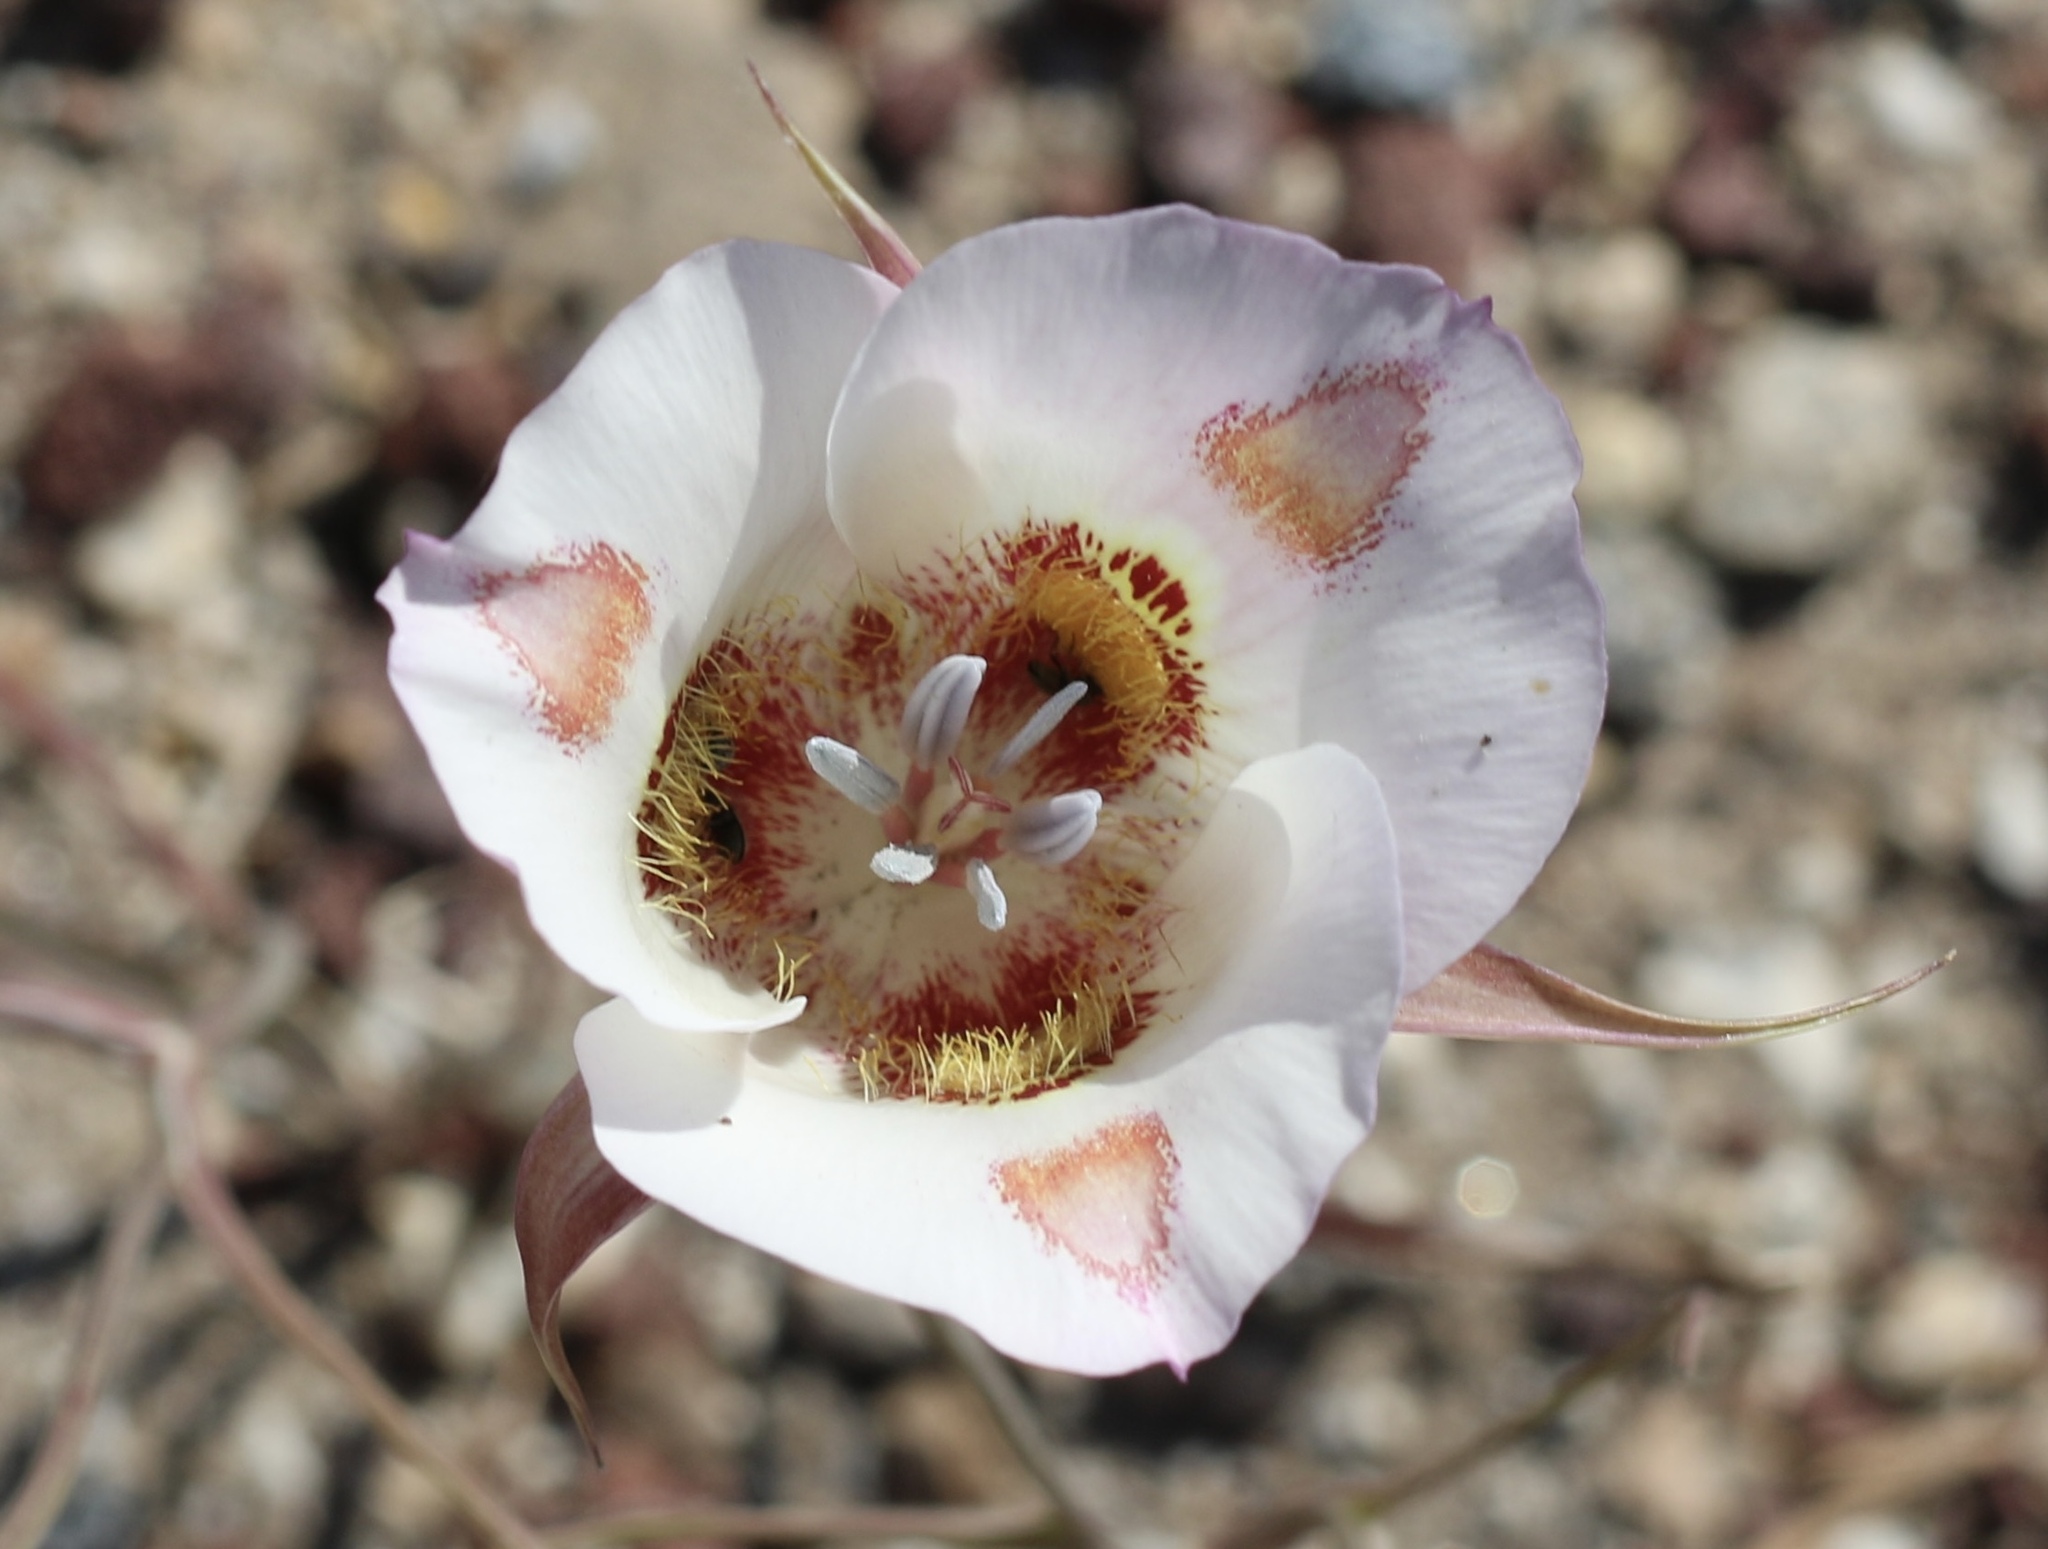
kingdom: Plantae
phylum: Tracheophyta
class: Liliopsida
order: Liliales
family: Liliaceae
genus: Calochortus
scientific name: Calochortus venustus
